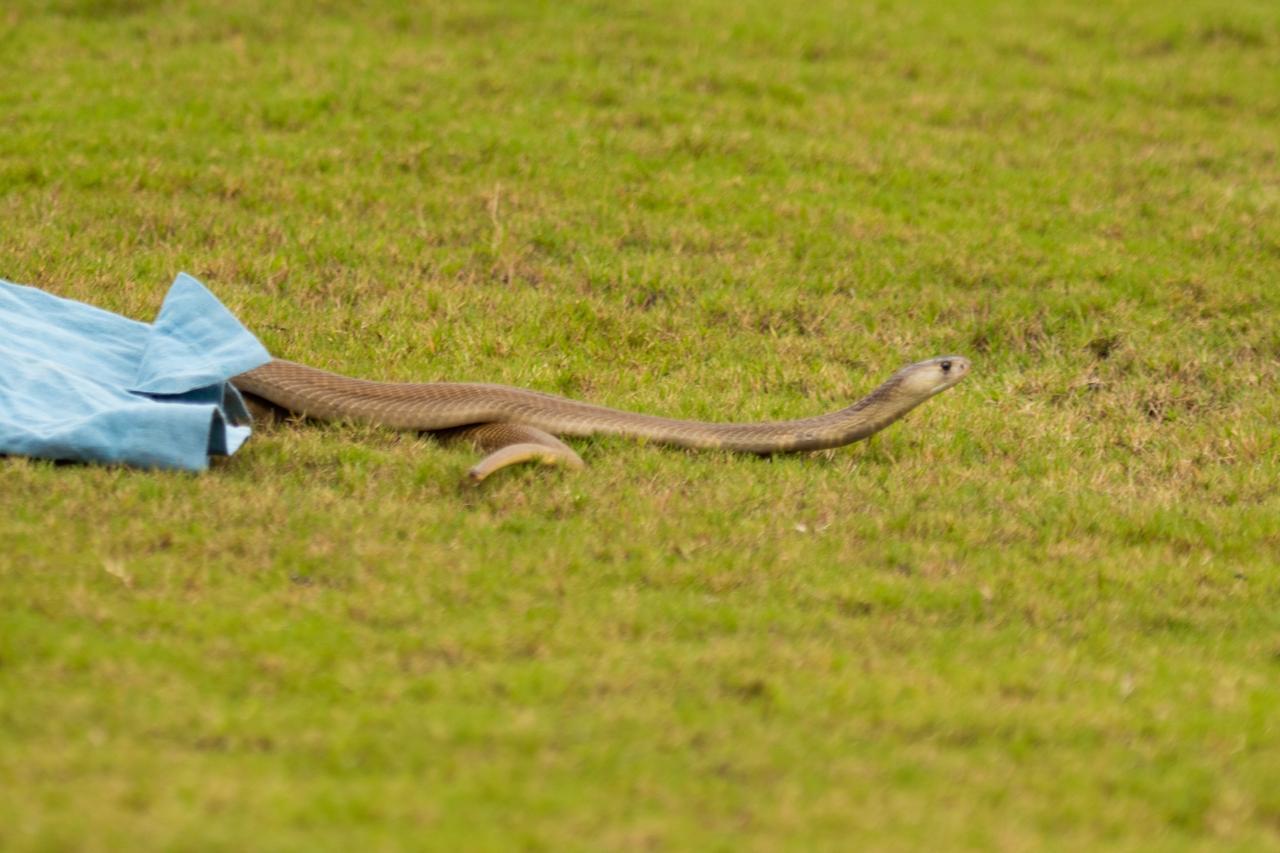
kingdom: Animalia
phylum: Chordata
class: Squamata
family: Elapidae
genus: Naja
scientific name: Naja naja
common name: Indian cobra
